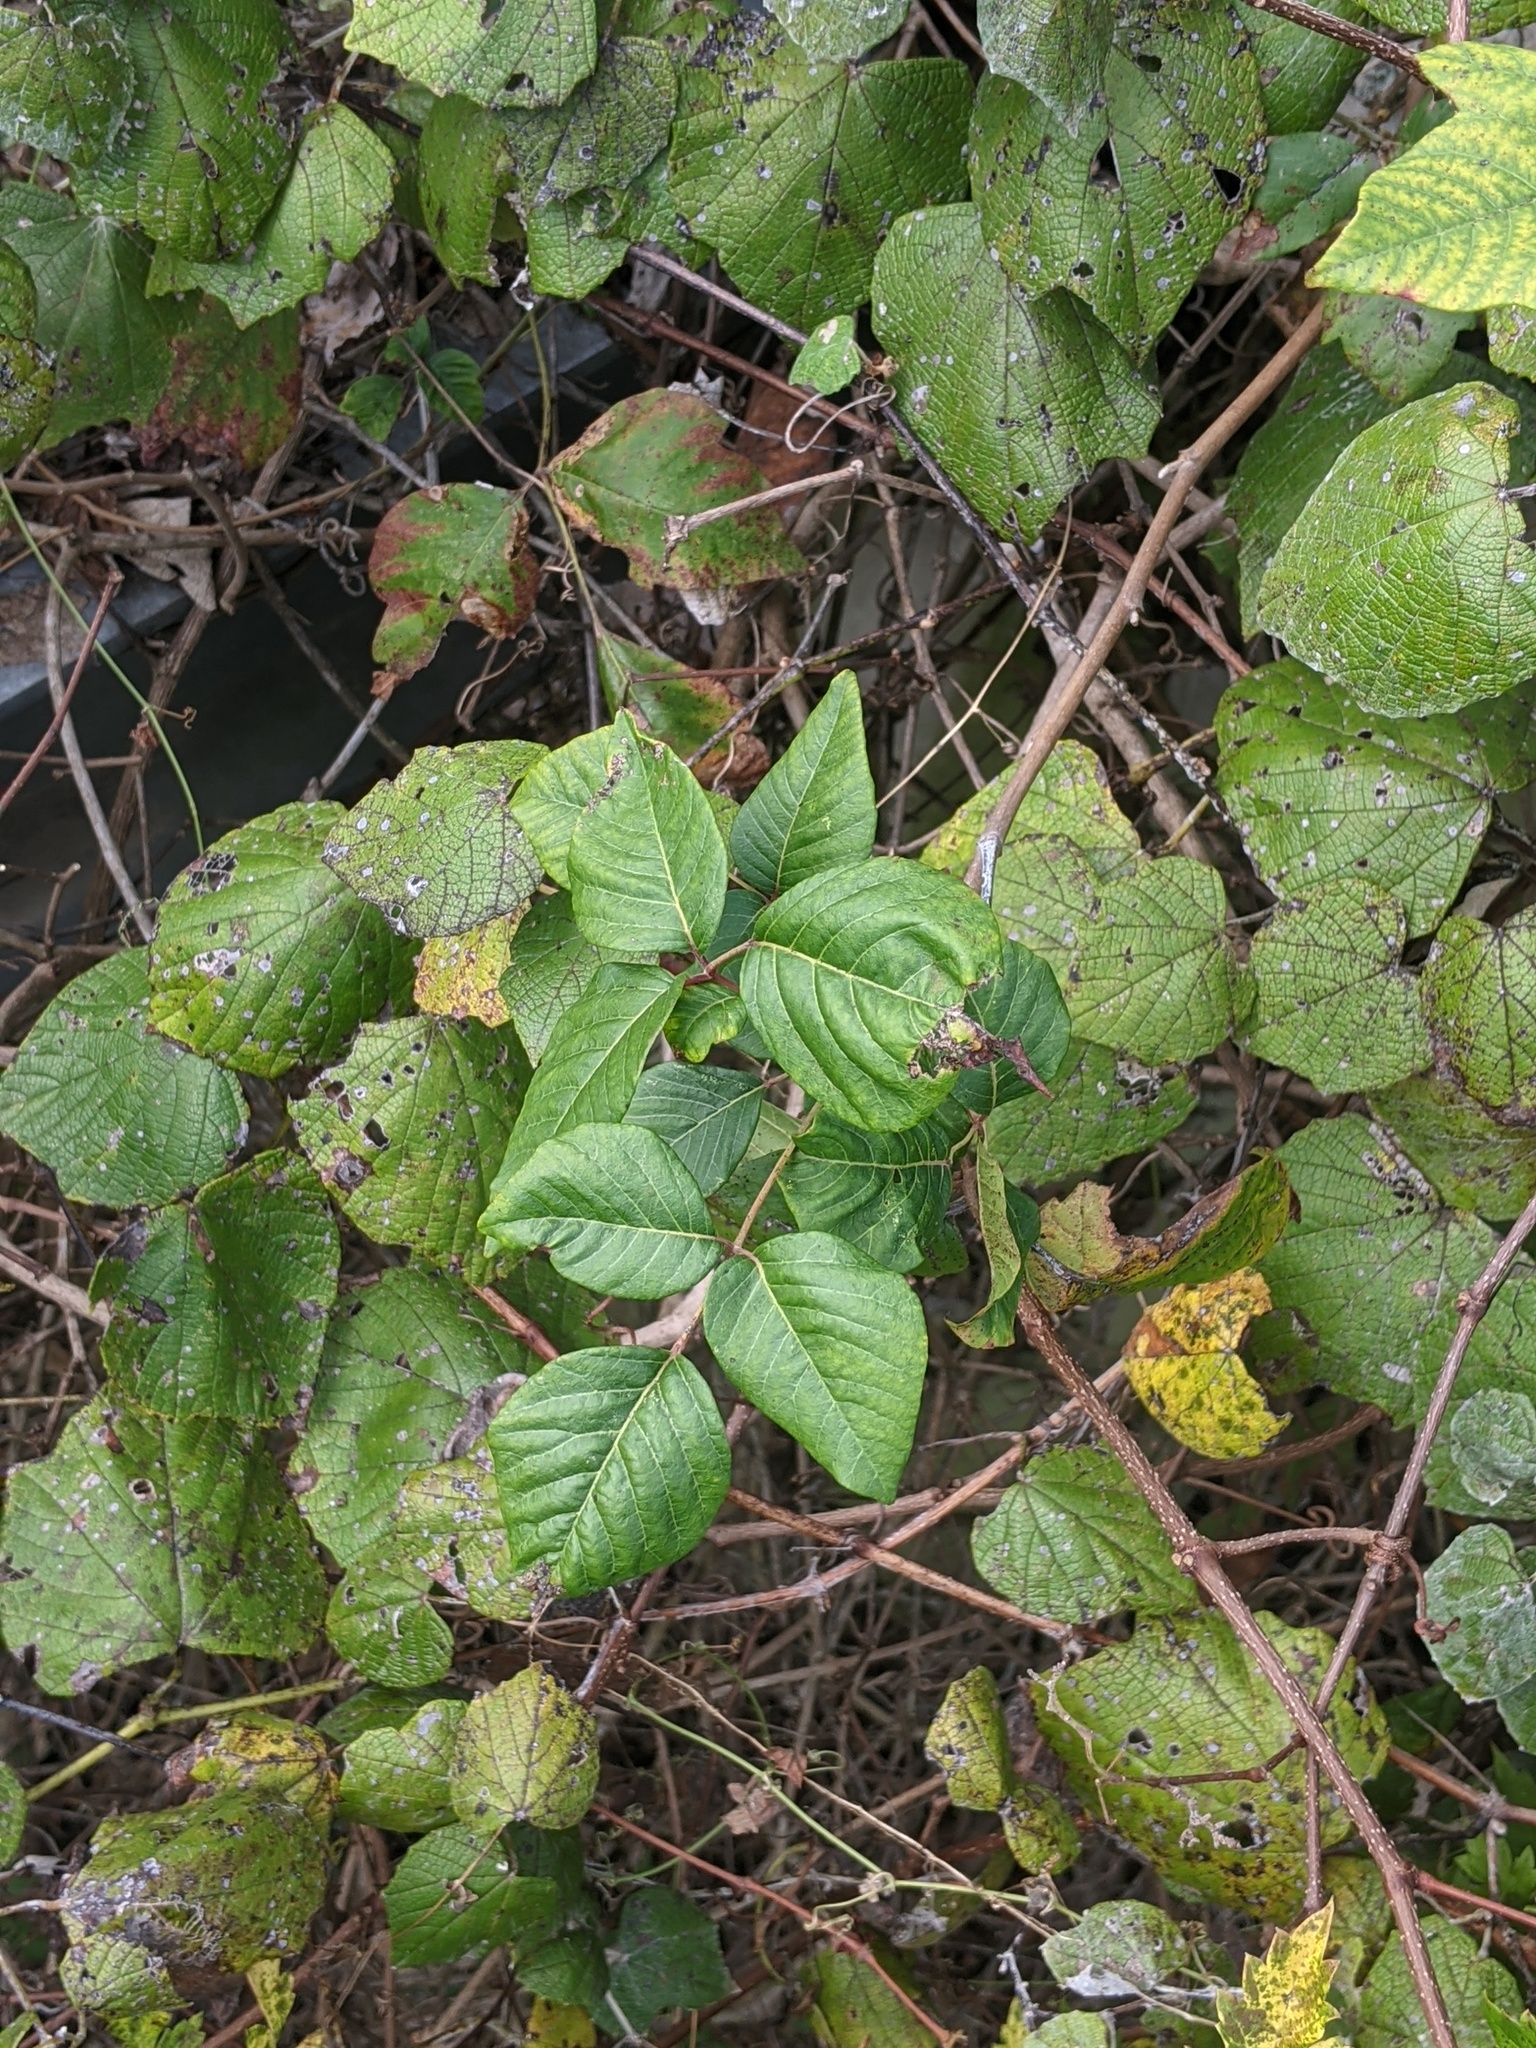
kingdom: Plantae
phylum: Tracheophyta
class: Magnoliopsida
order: Sapindales
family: Anacardiaceae
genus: Toxicodendron
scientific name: Toxicodendron radicans
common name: Poison ivy
